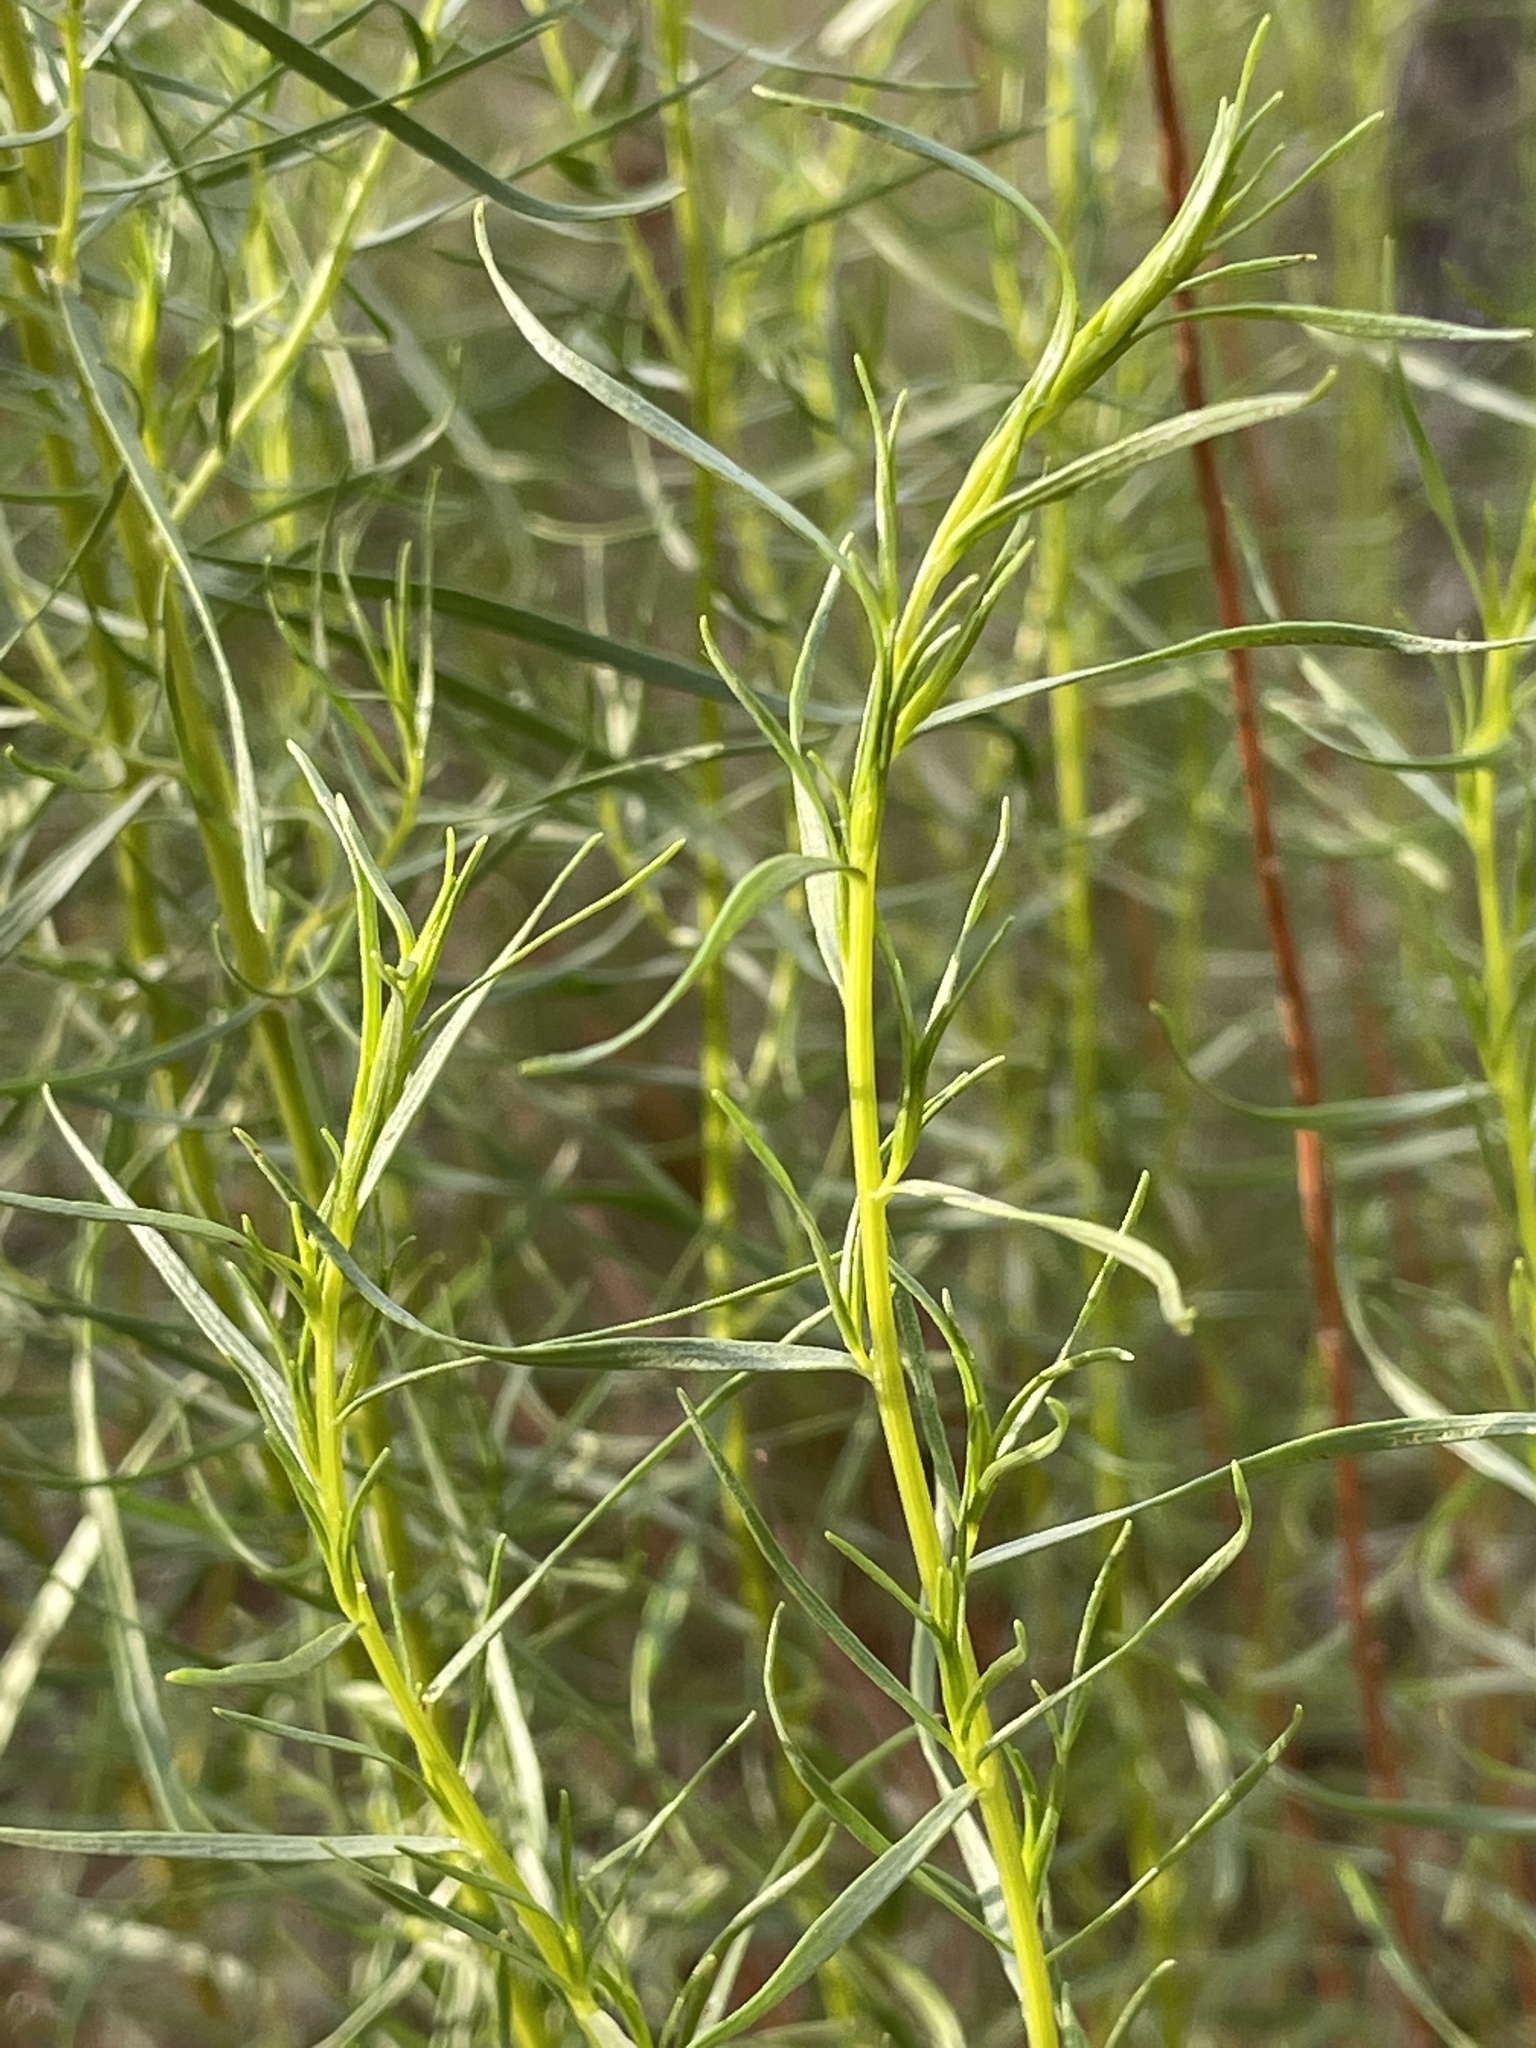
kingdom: Plantae
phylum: Tracheophyta
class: Magnoliopsida
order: Asterales
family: Asteraceae
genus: Artemisia
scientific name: Artemisia dracunculus
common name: Tarragon
